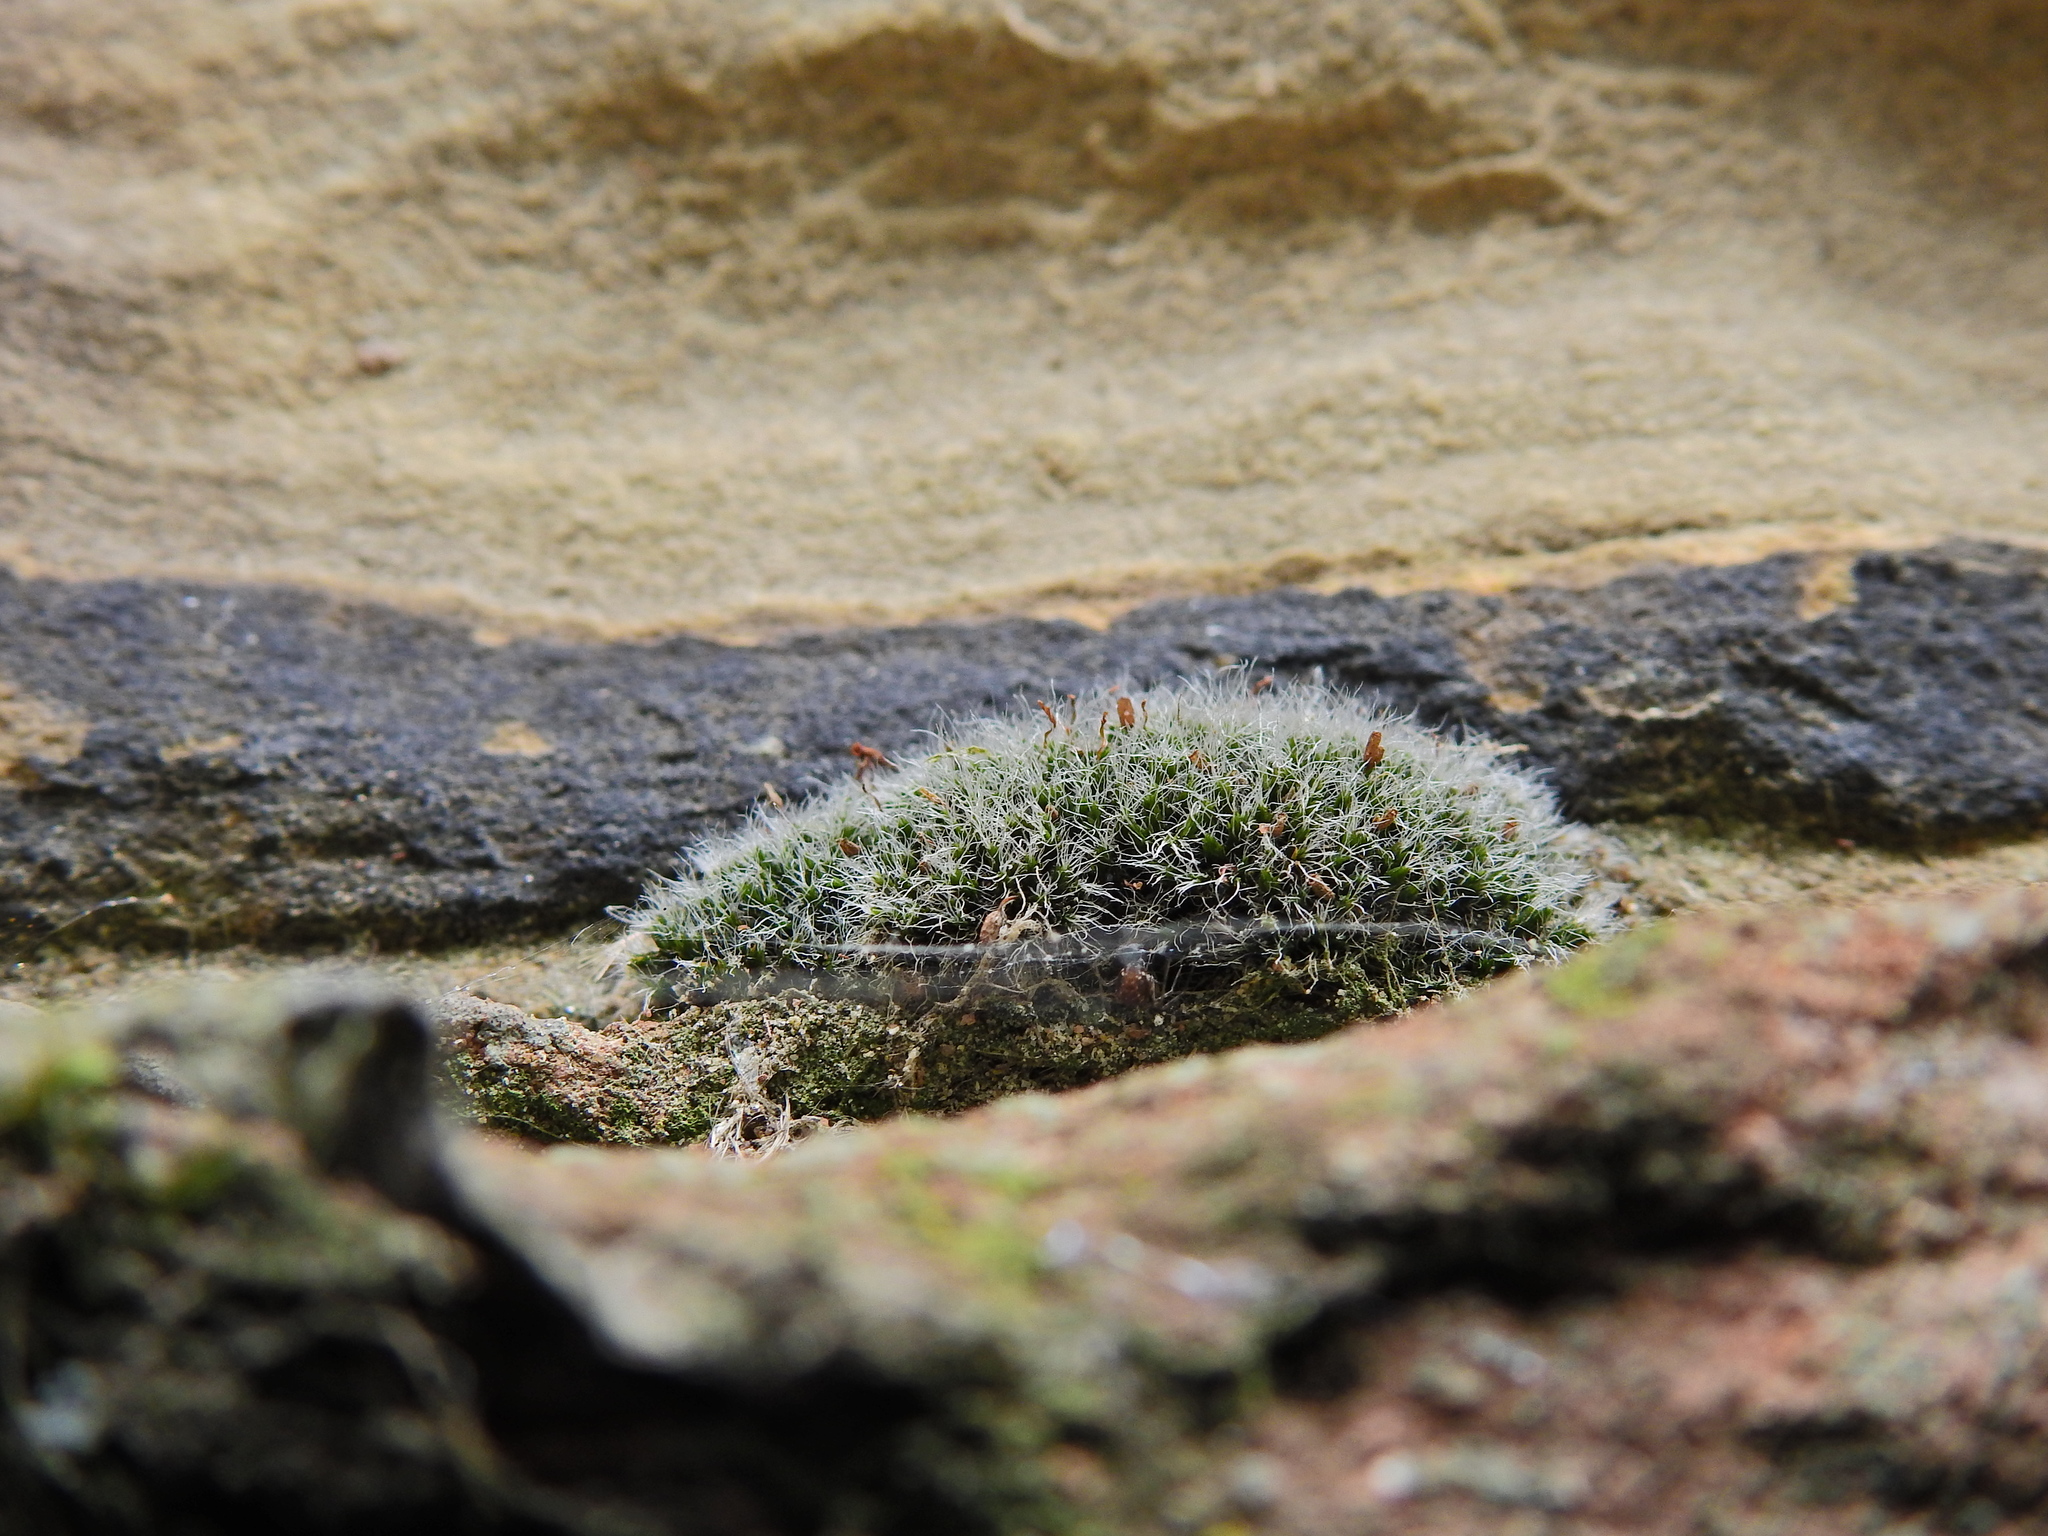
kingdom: Plantae
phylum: Bryophyta
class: Bryopsida
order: Grimmiales
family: Grimmiaceae
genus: Grimmia
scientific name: Grimmia pulvinata
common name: Grey-cushioned grimmia
